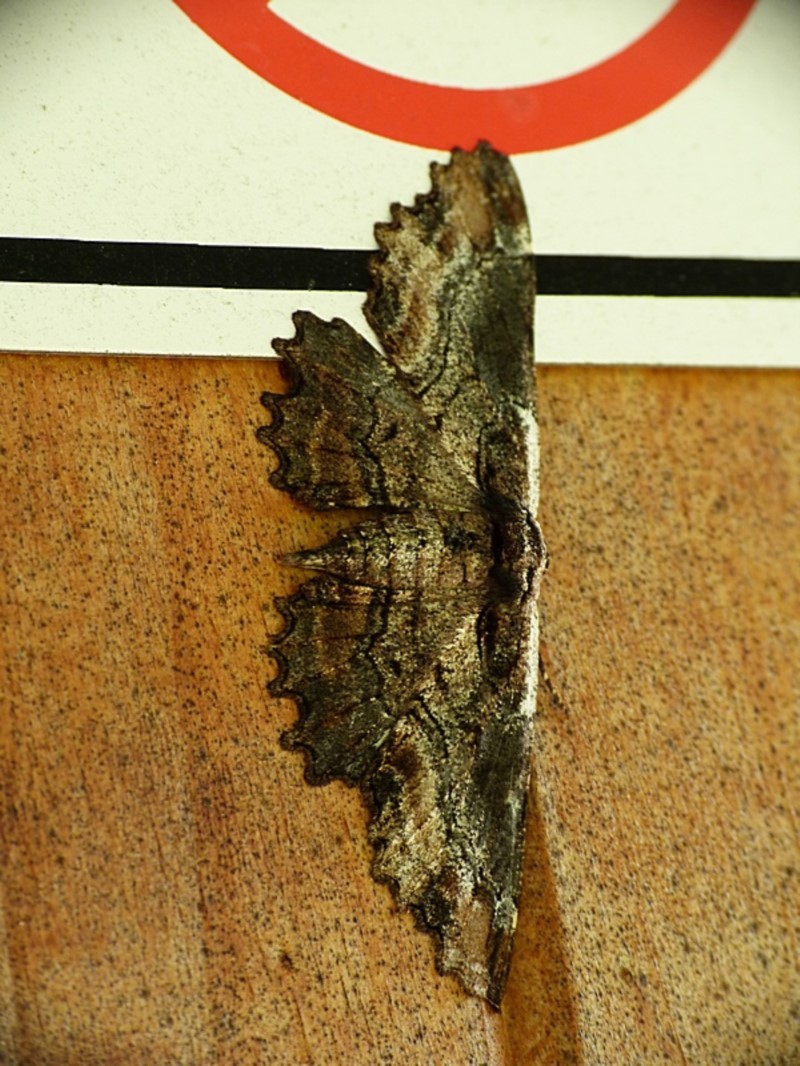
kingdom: Animalia
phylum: Arthropoda
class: Insecta
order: Lepidoptera
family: Geometridae
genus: Pholodes
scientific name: Pholodes sinistraria
